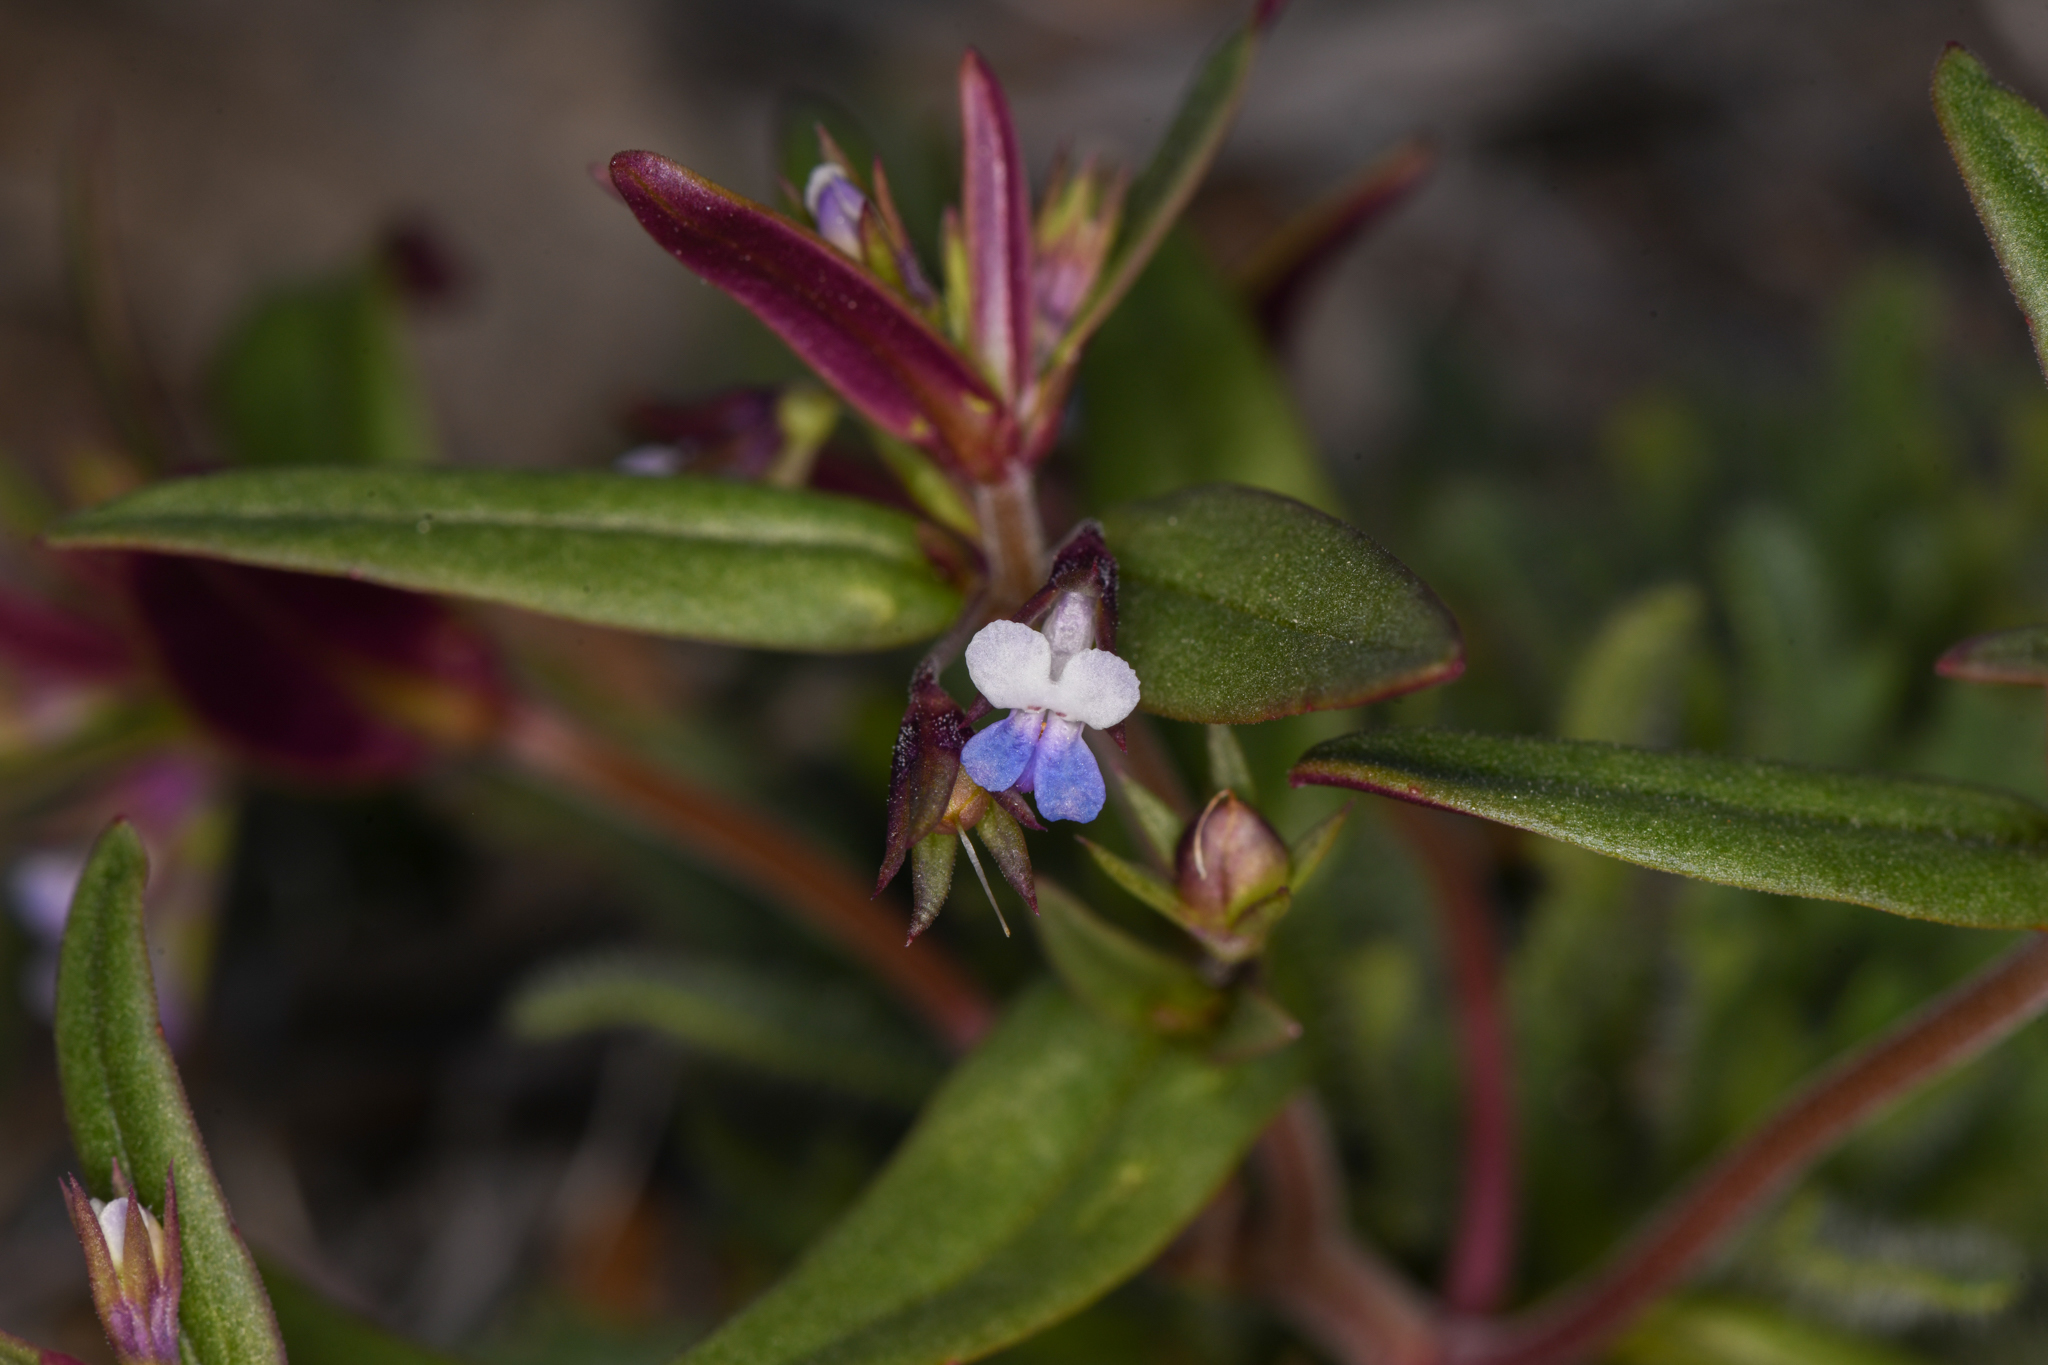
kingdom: Plantae
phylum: Tracheophyta
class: Magnoliopsida
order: Lamiales
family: Plantaginaceae
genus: Collinsia
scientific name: Collinsia parviflora
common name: Blue-lips
